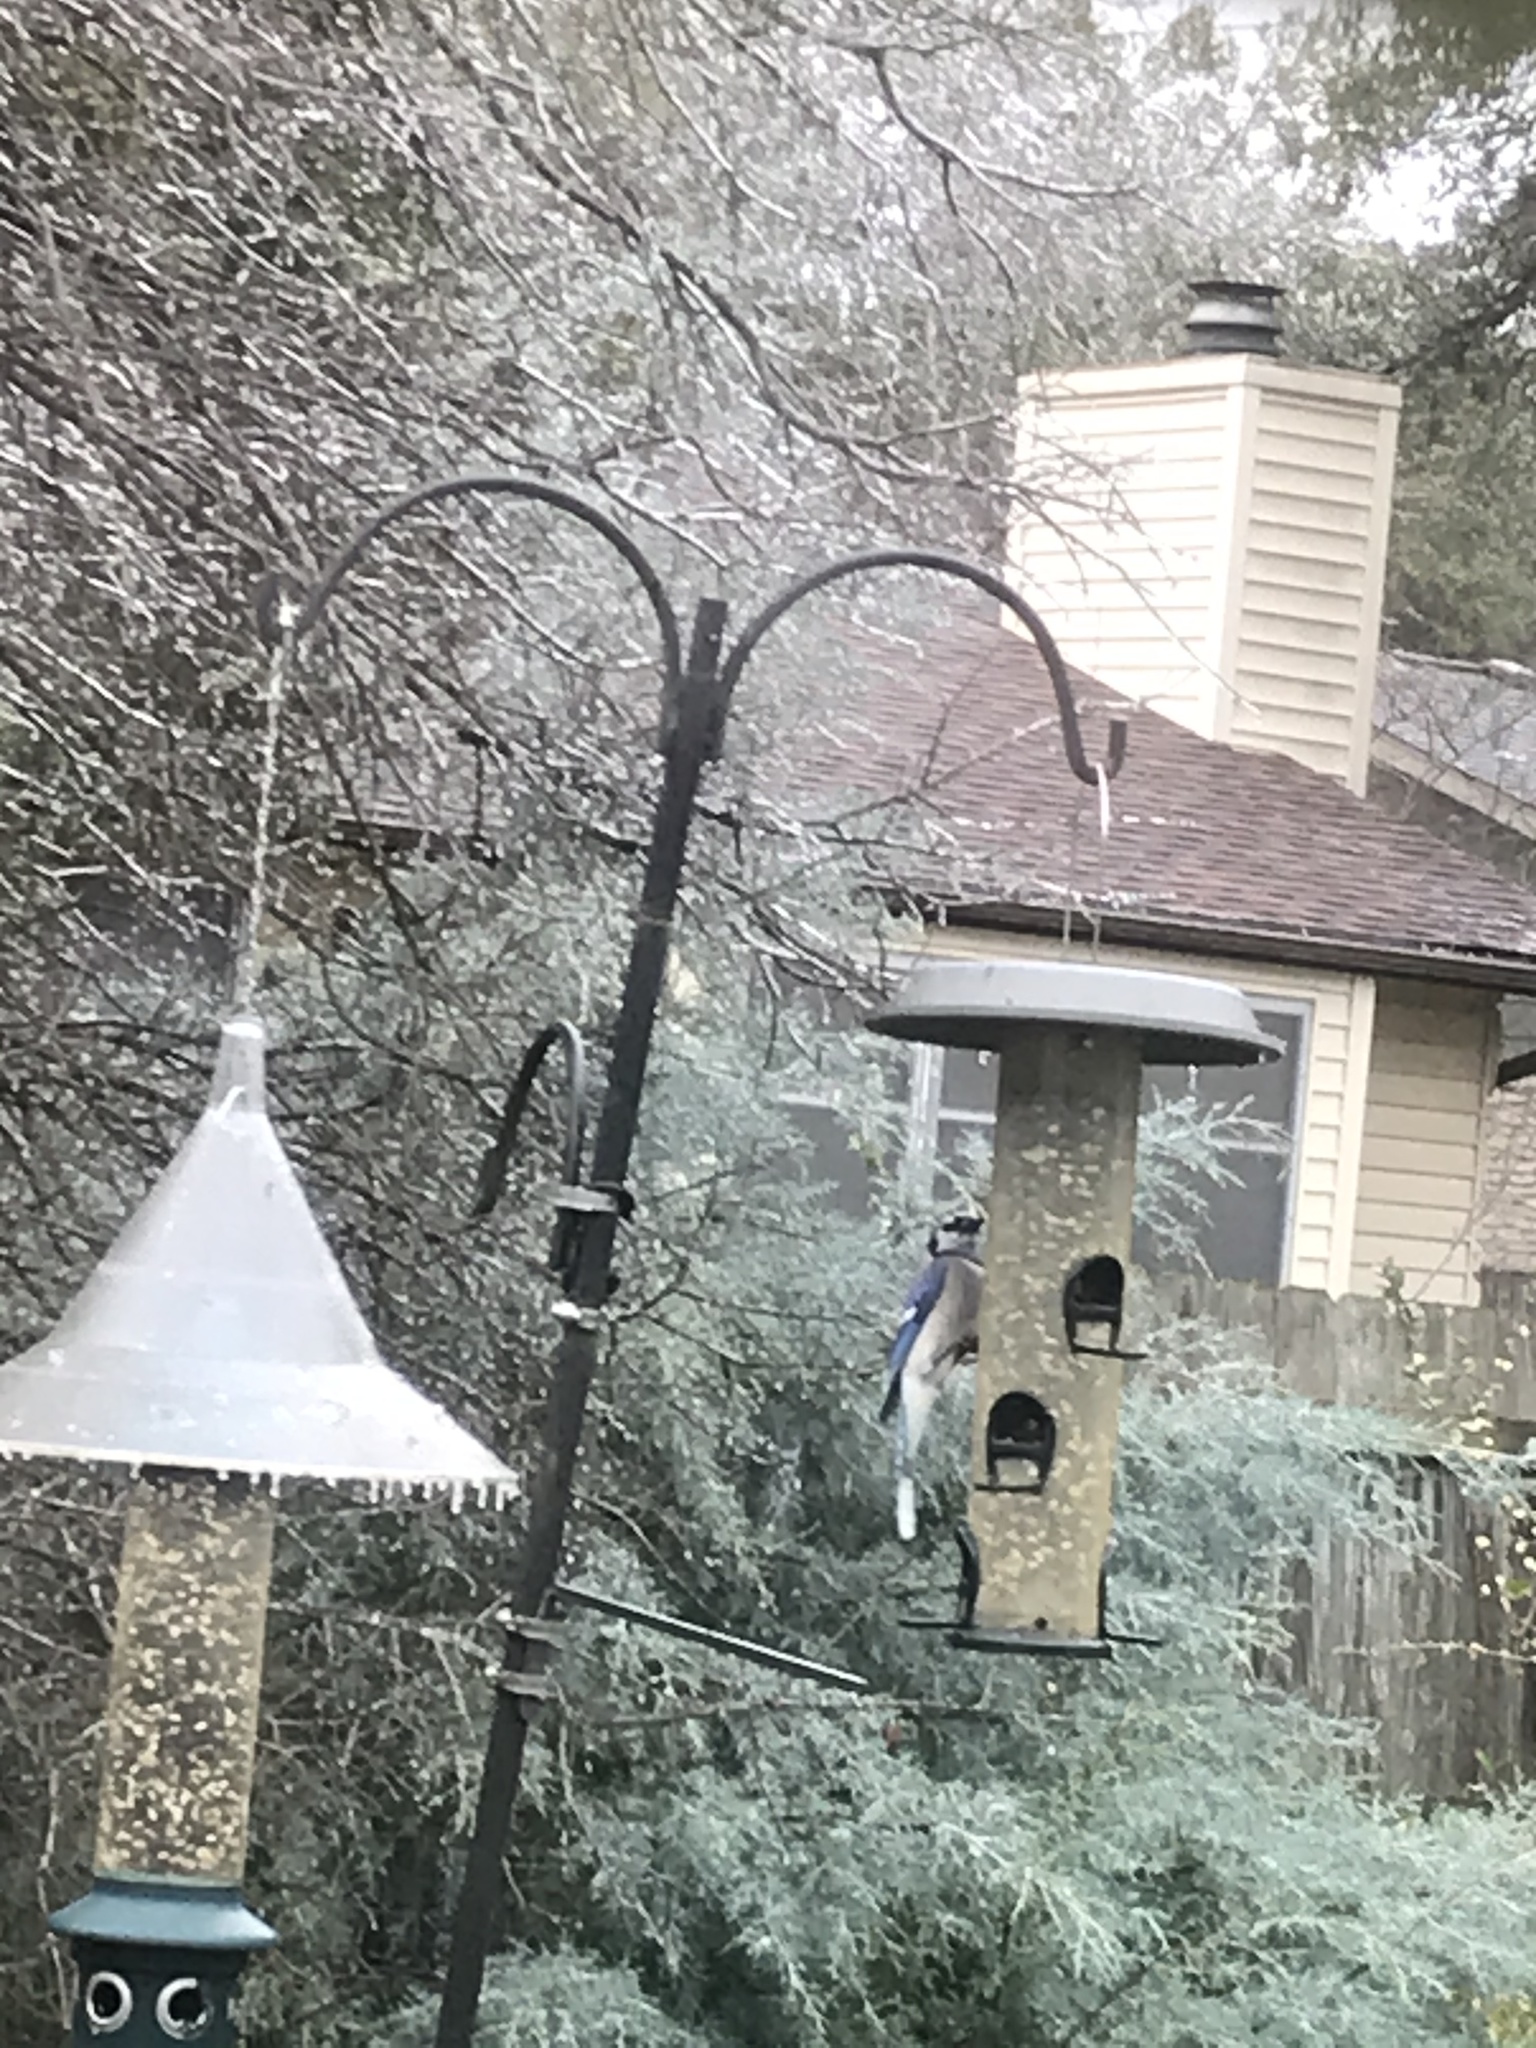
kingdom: Animalia
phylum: Chordata
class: Aves
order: Passeriformes
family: Corvidae
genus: Cyanocitta
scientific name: Cyanocitta cristata
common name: Blue jay
